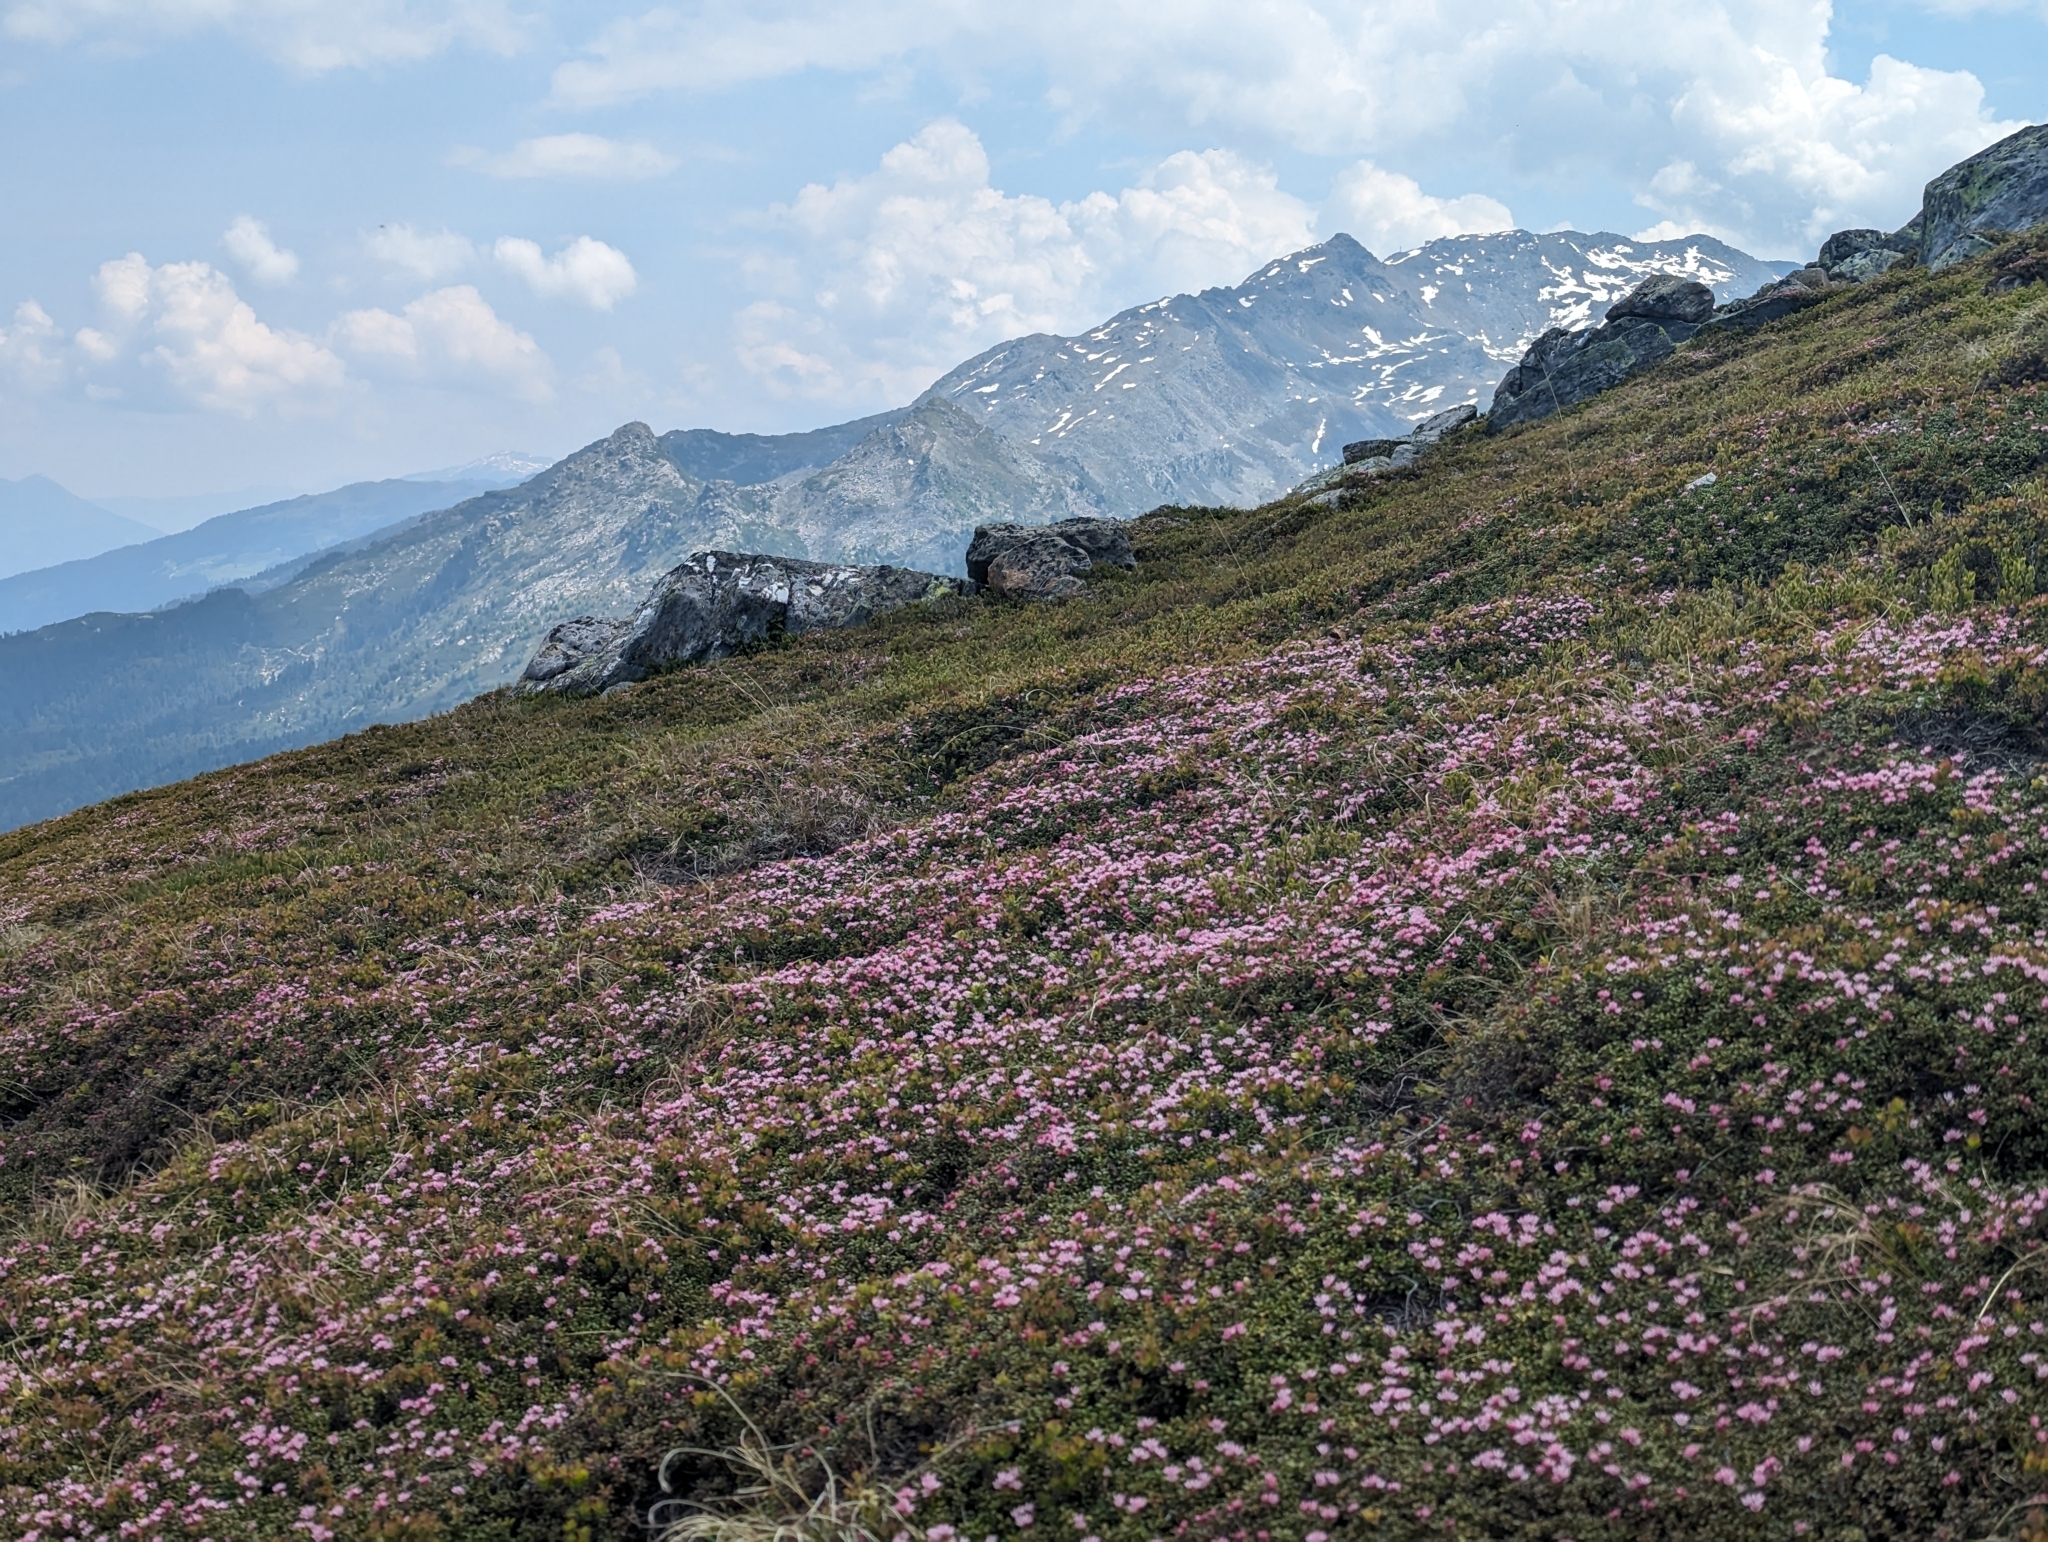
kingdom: Plantae
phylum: Tracheophyta
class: Magnoliopsida
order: Ericales
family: Ericaceae
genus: Kalmia
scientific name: Kalmia procumbens
